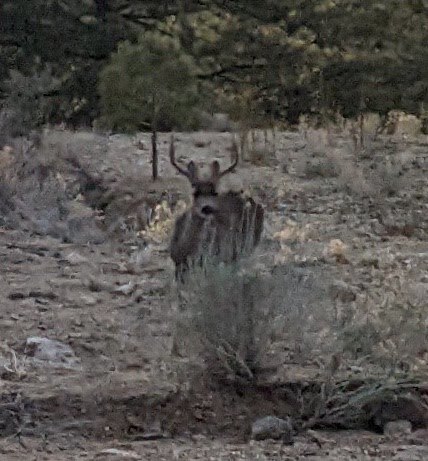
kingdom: Animalia
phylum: Chordata
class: Mammalia
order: Artiodactyla
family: Cervidae
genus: Odocoileus
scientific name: Odocoileus hemionus
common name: Mule deer
